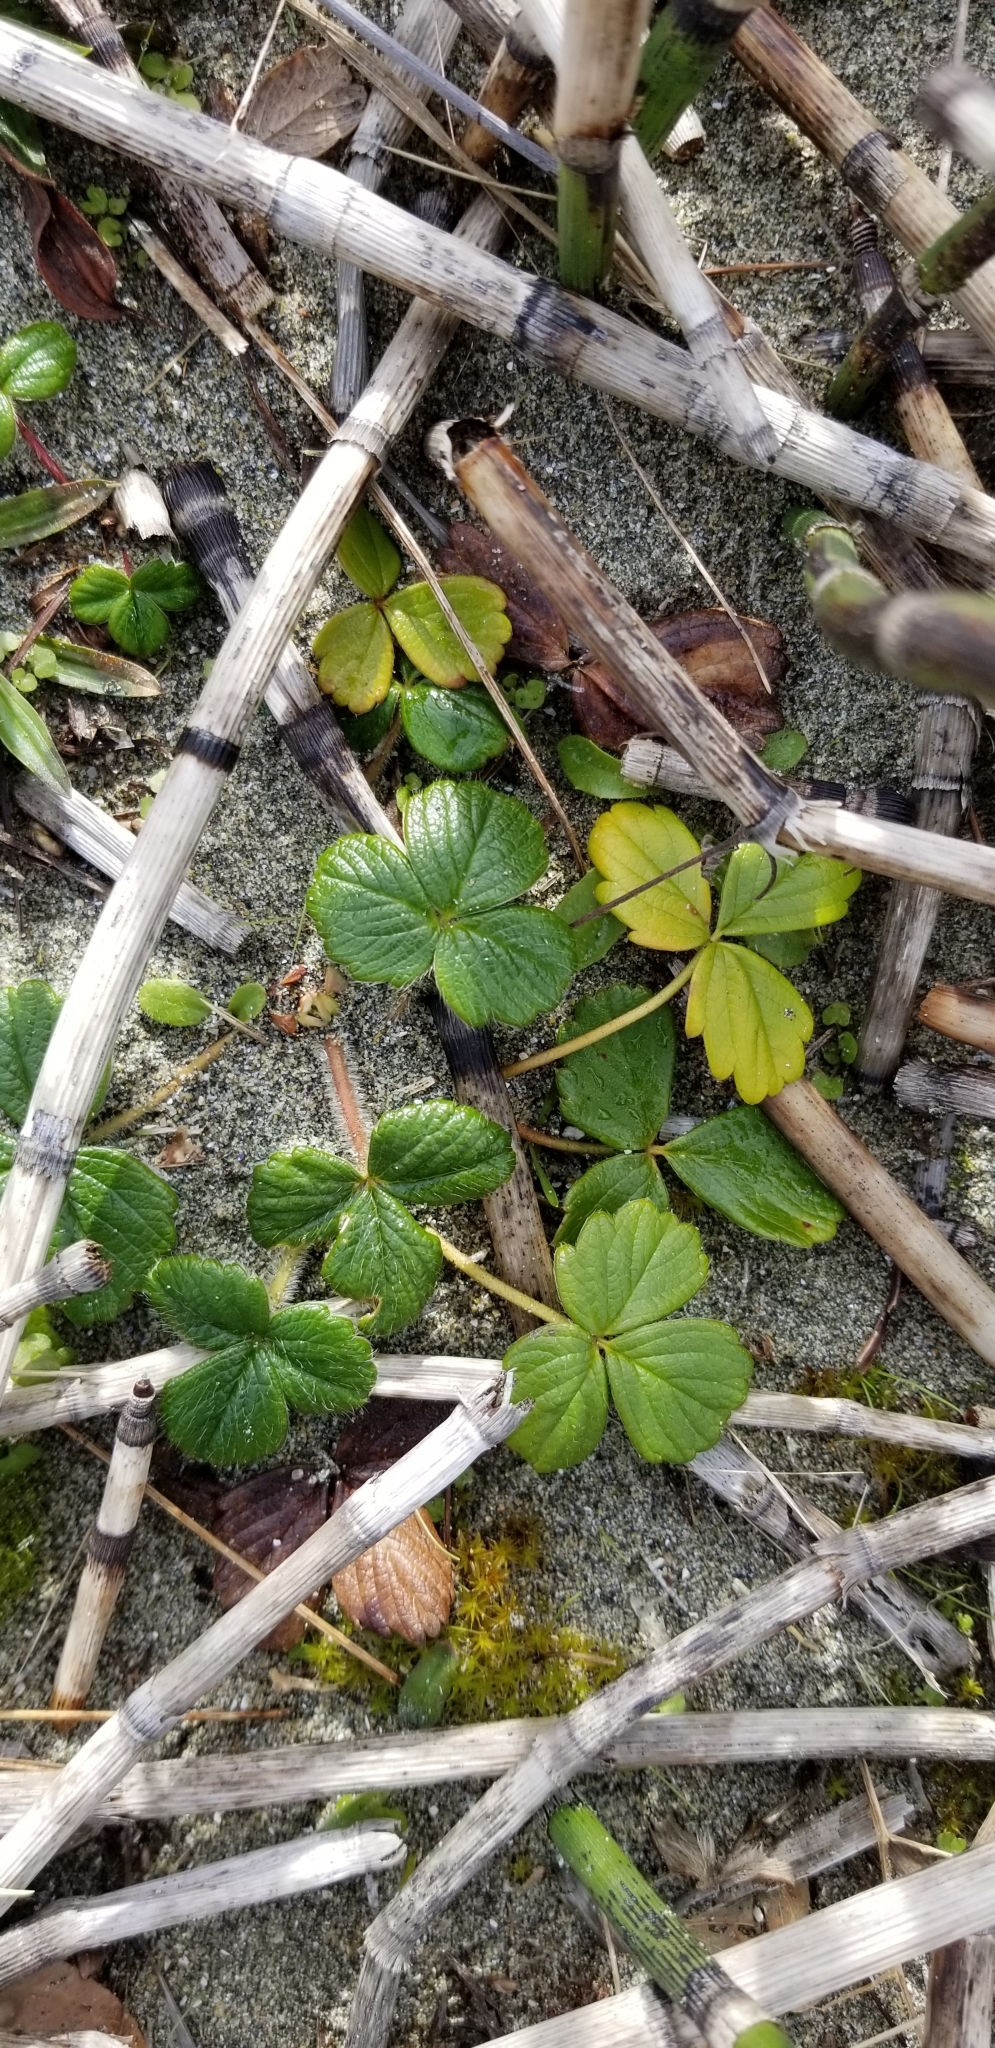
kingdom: Plantae
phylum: Tracheophyta
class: Magnoliopsida
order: Rosales
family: Rosaceae
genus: Fragaria
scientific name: Fragaria chiloensis
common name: Beach strawberry
